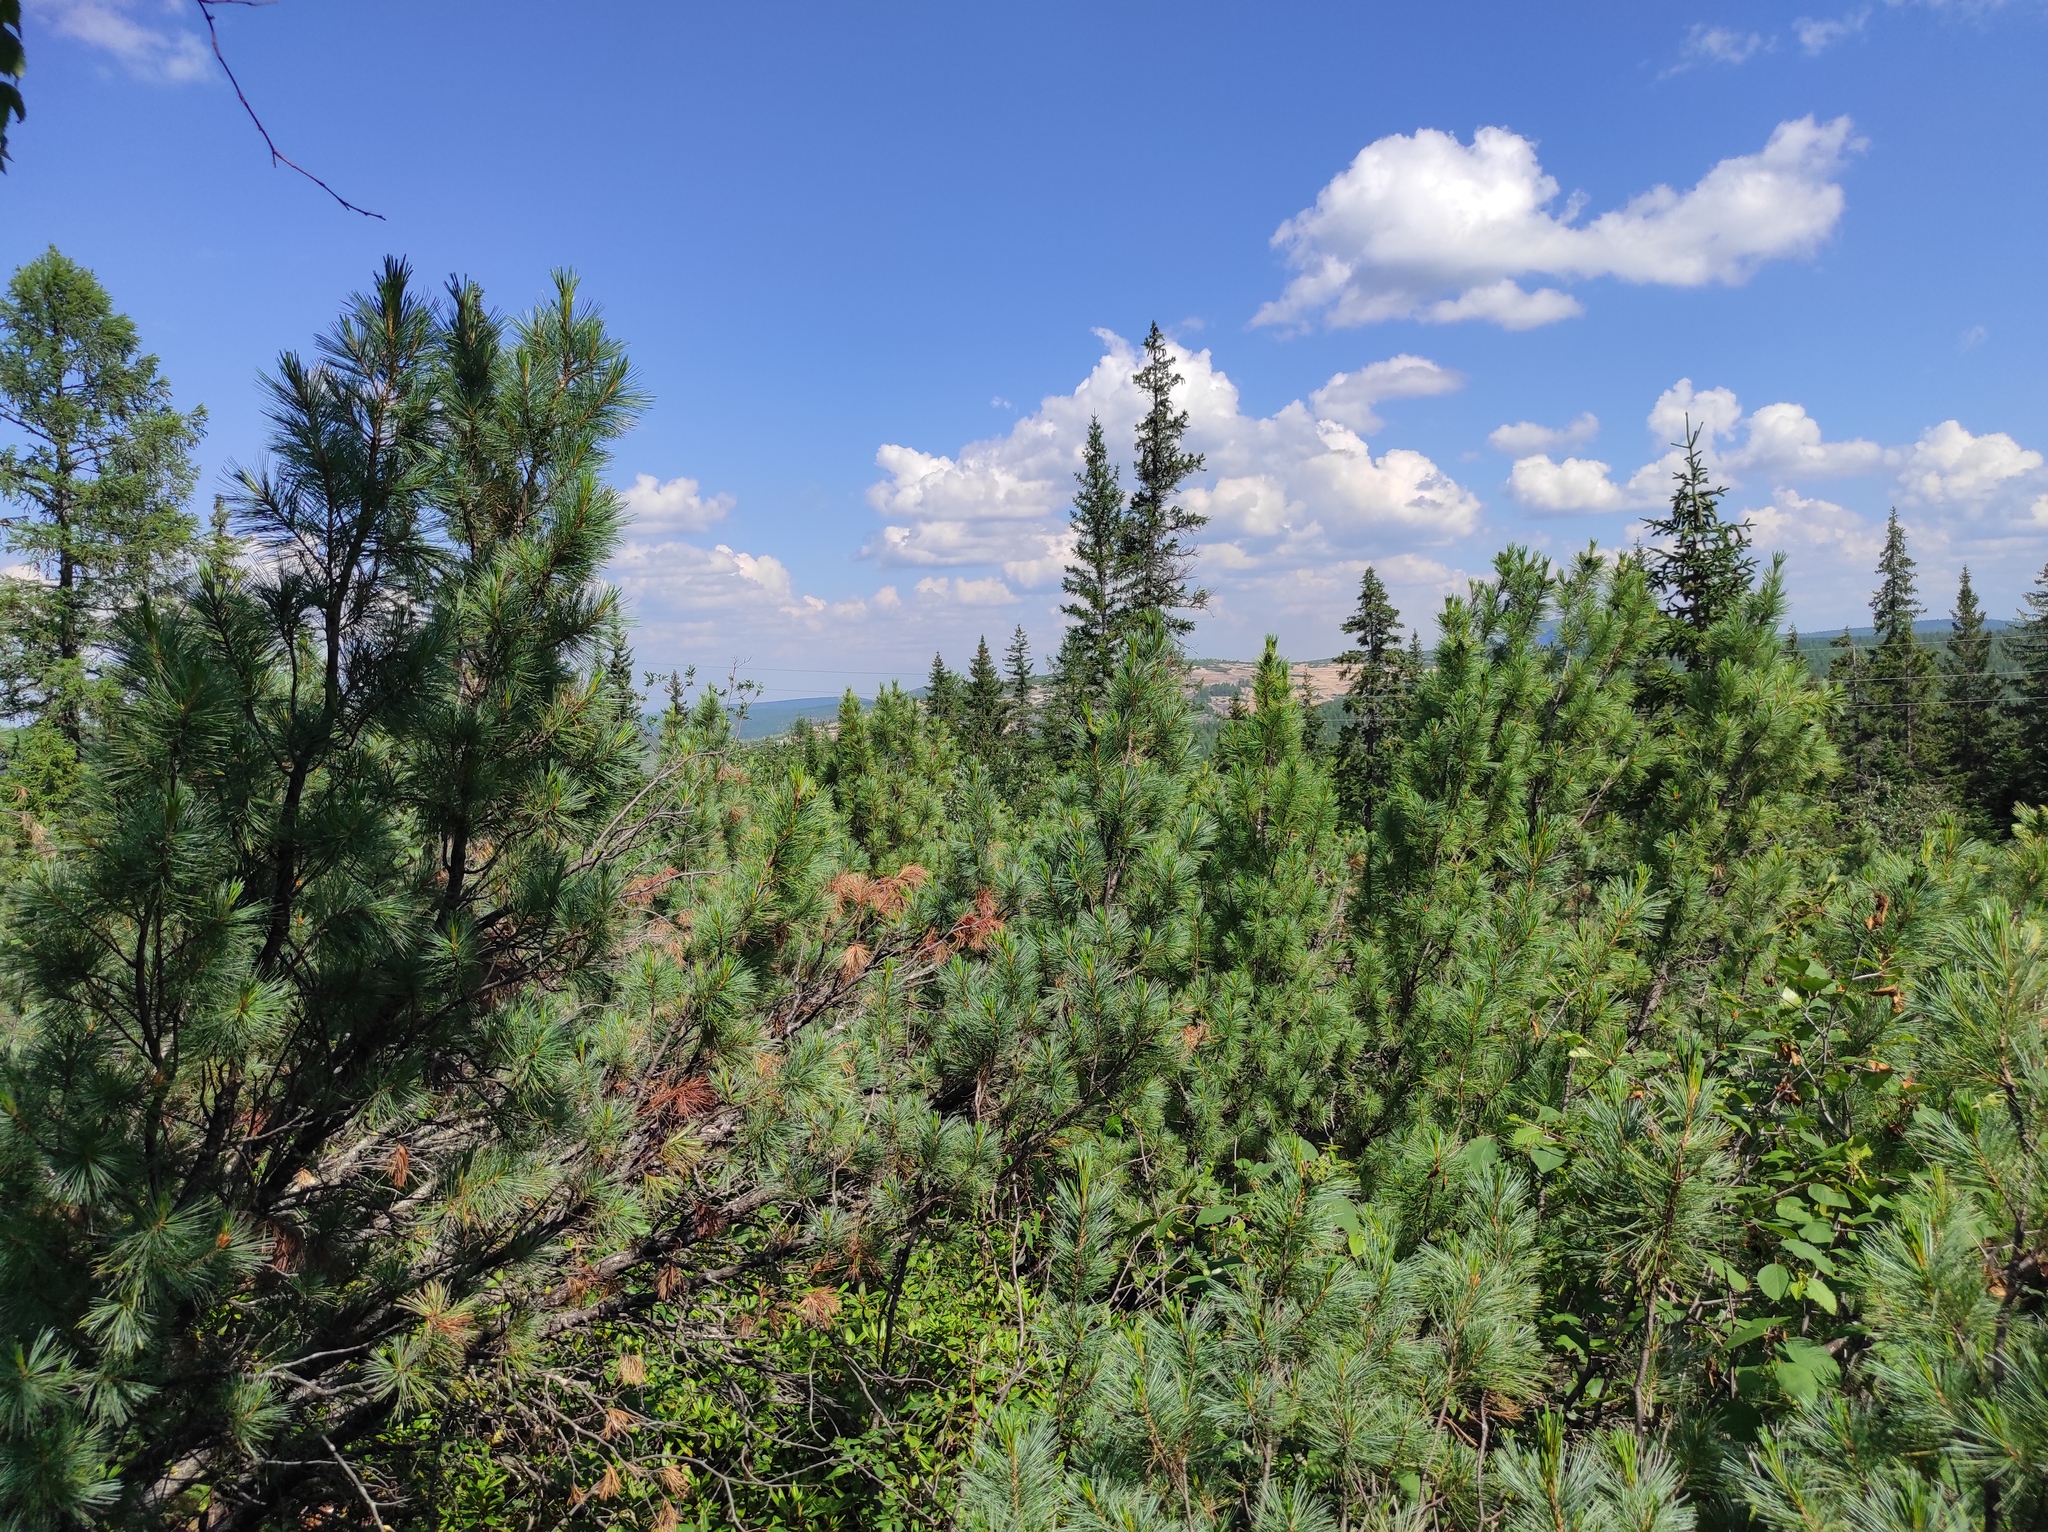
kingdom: Plantae
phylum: Tracheophyta
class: Pinopsida
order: Pinales
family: Pinaceae
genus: Pinus
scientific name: Pinus pumila
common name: Dwarf siberian pine
